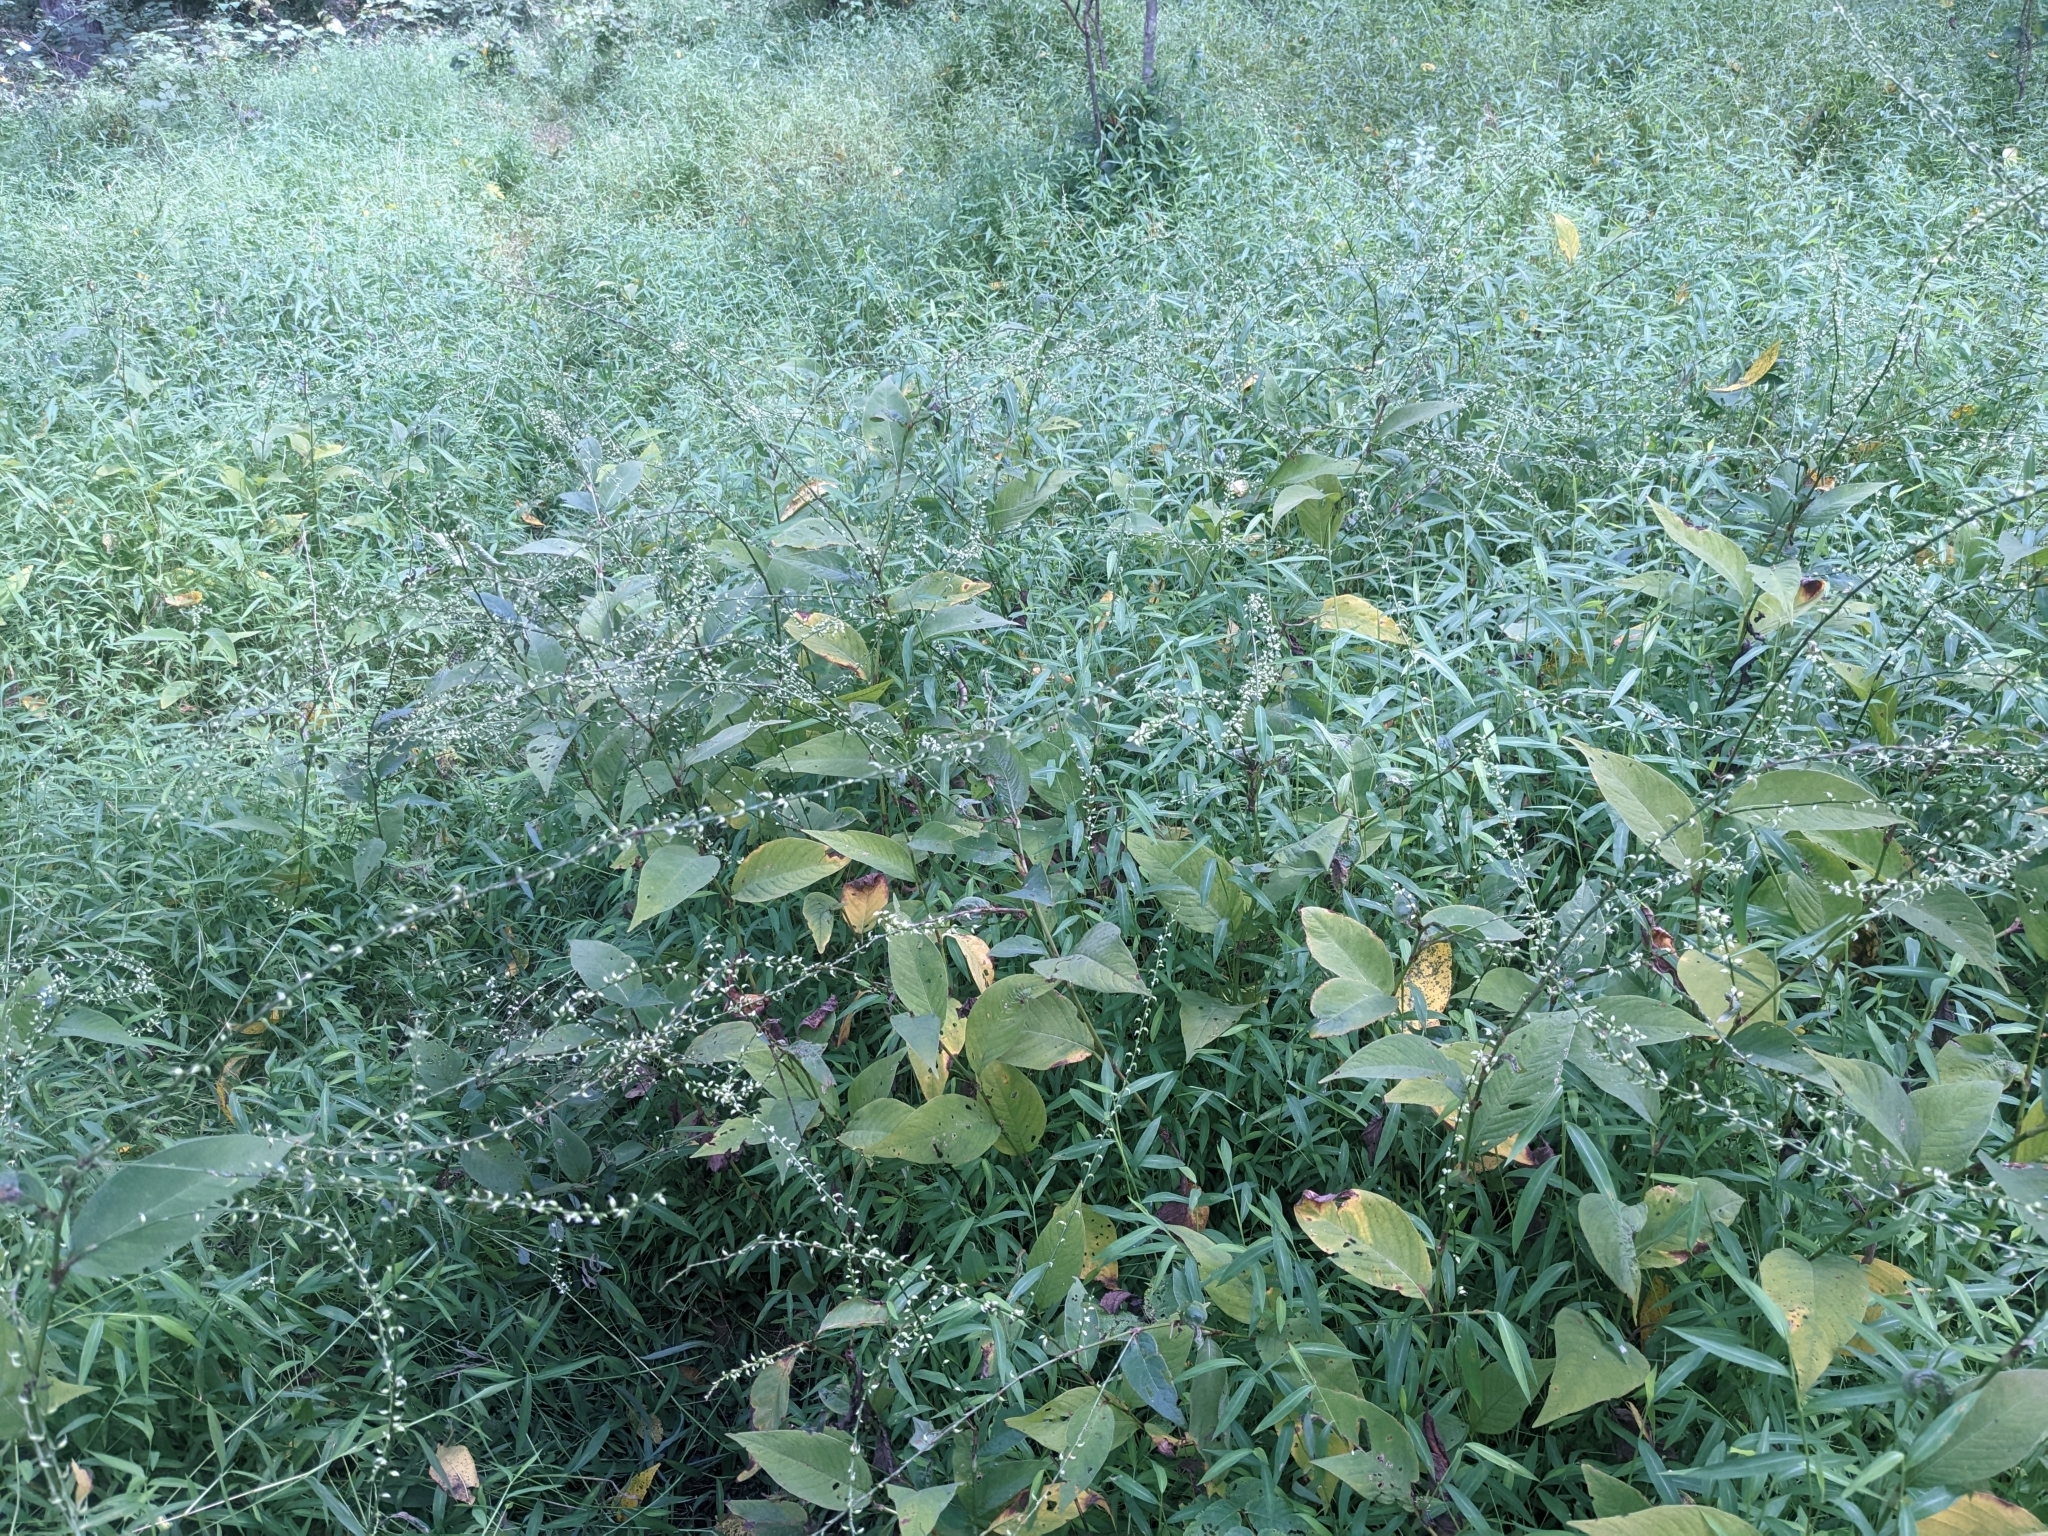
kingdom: Plantae
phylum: Tracheophyta
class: Magnoliopsida
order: Caryophyllales
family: Polygonaceae
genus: Persicaria
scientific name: Persicaria virginiana
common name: Jumpseed
